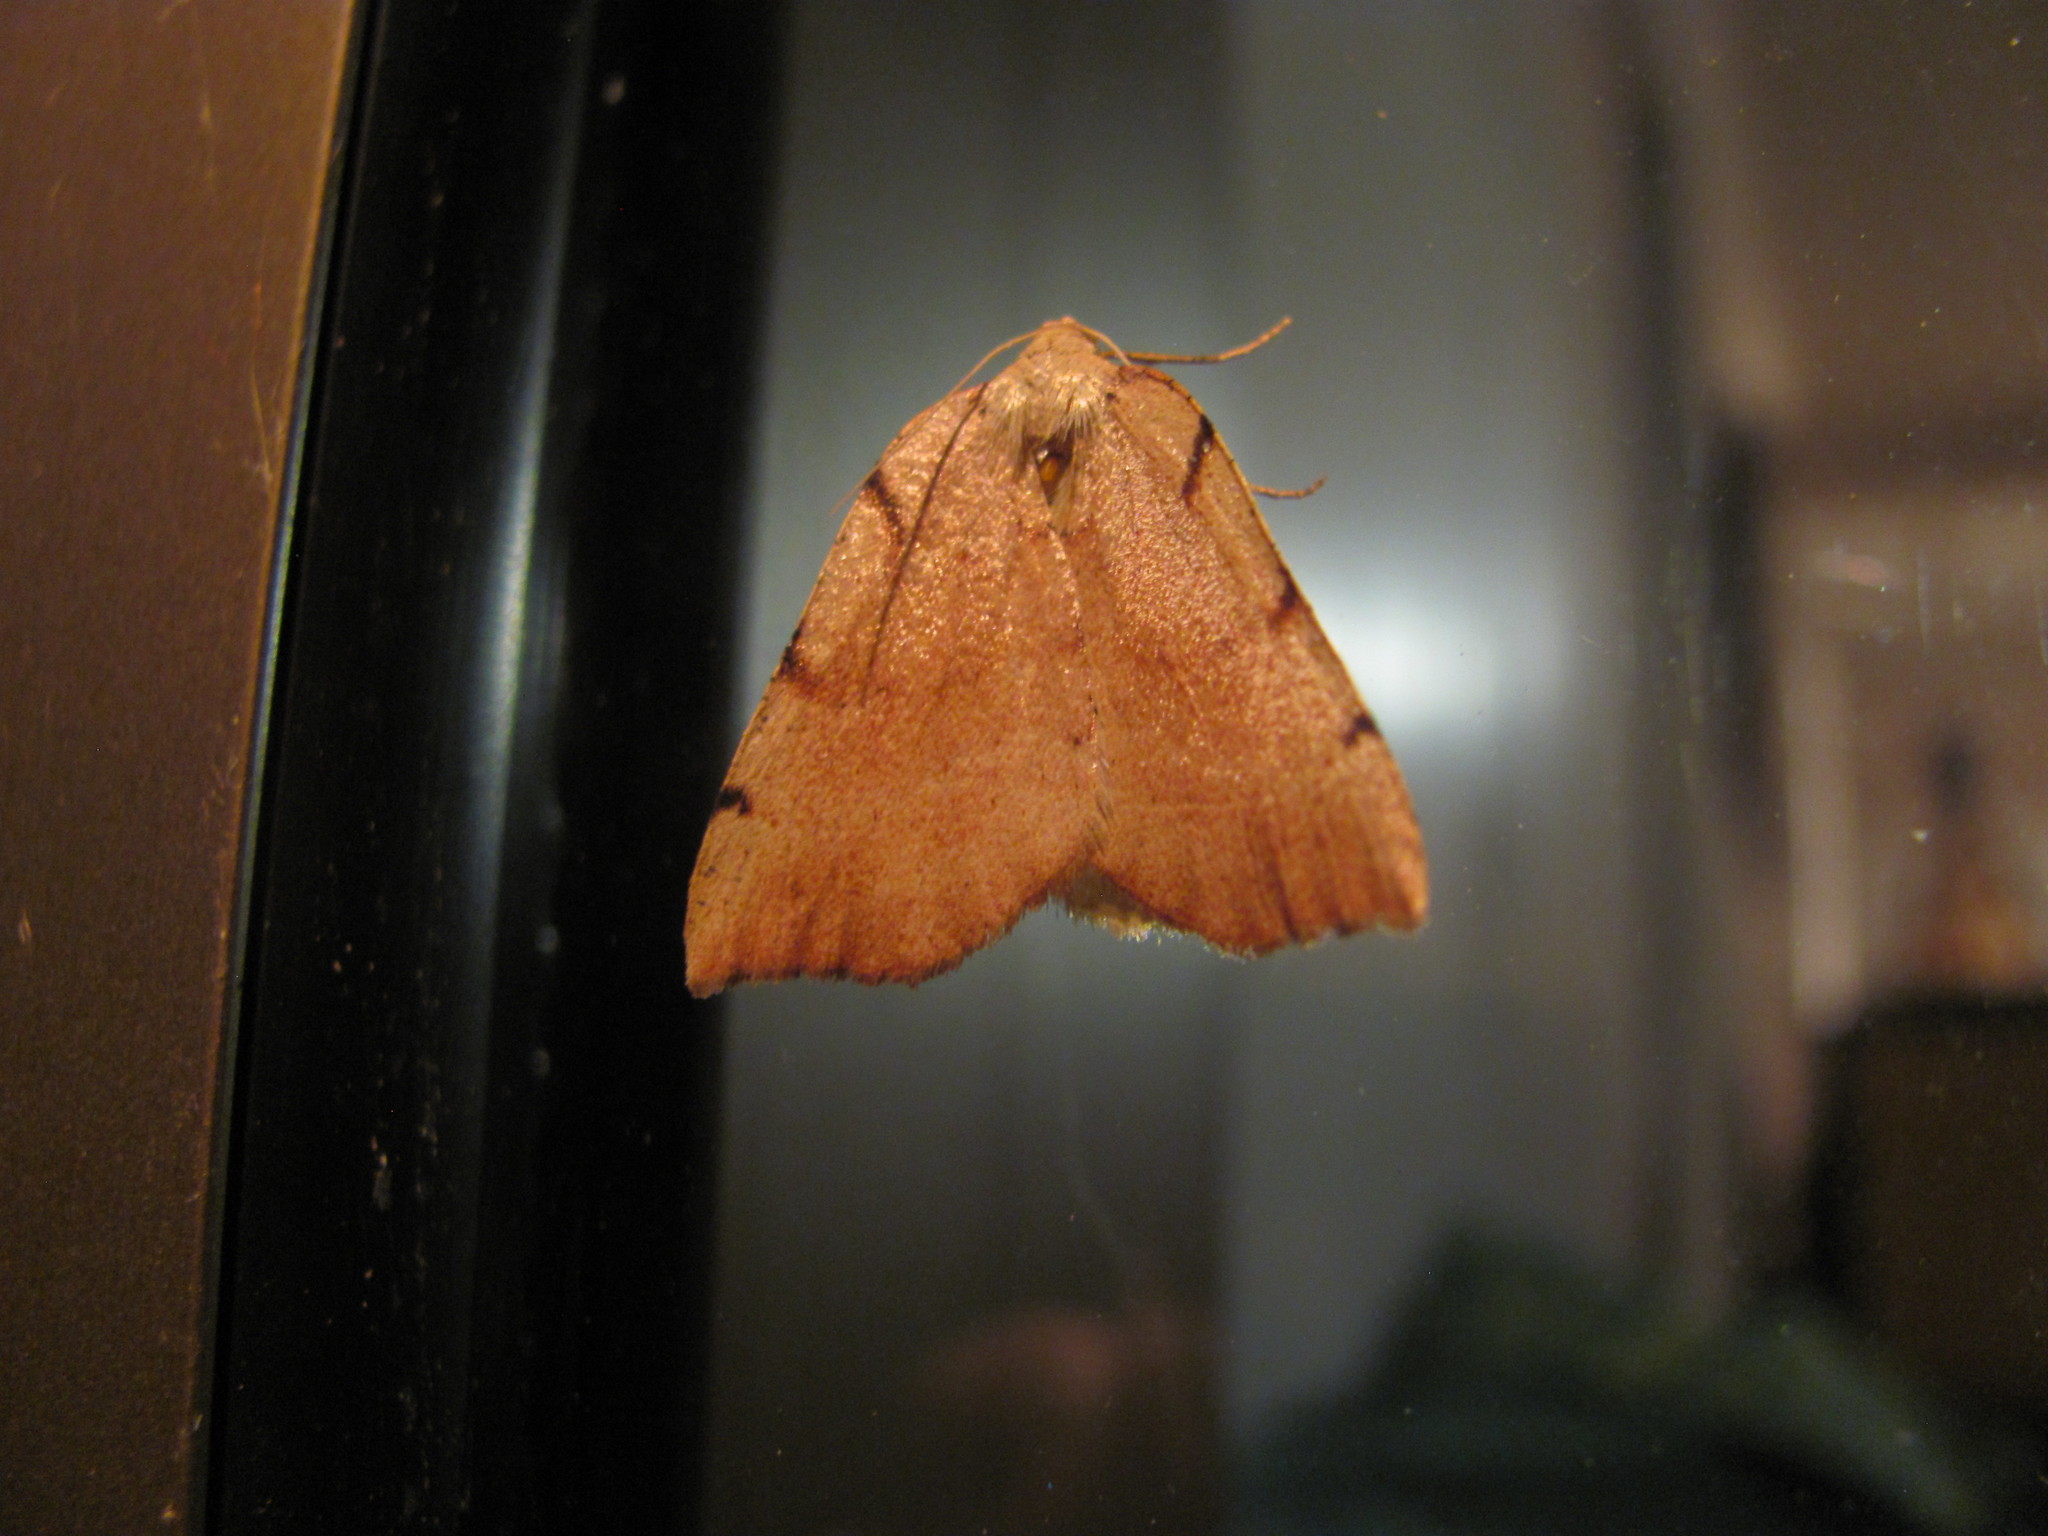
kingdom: Animalia
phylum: Arthropoda
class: Insecta
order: Lepidoptera
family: Geometridae
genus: Sestra
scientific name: Sestra humeraria
